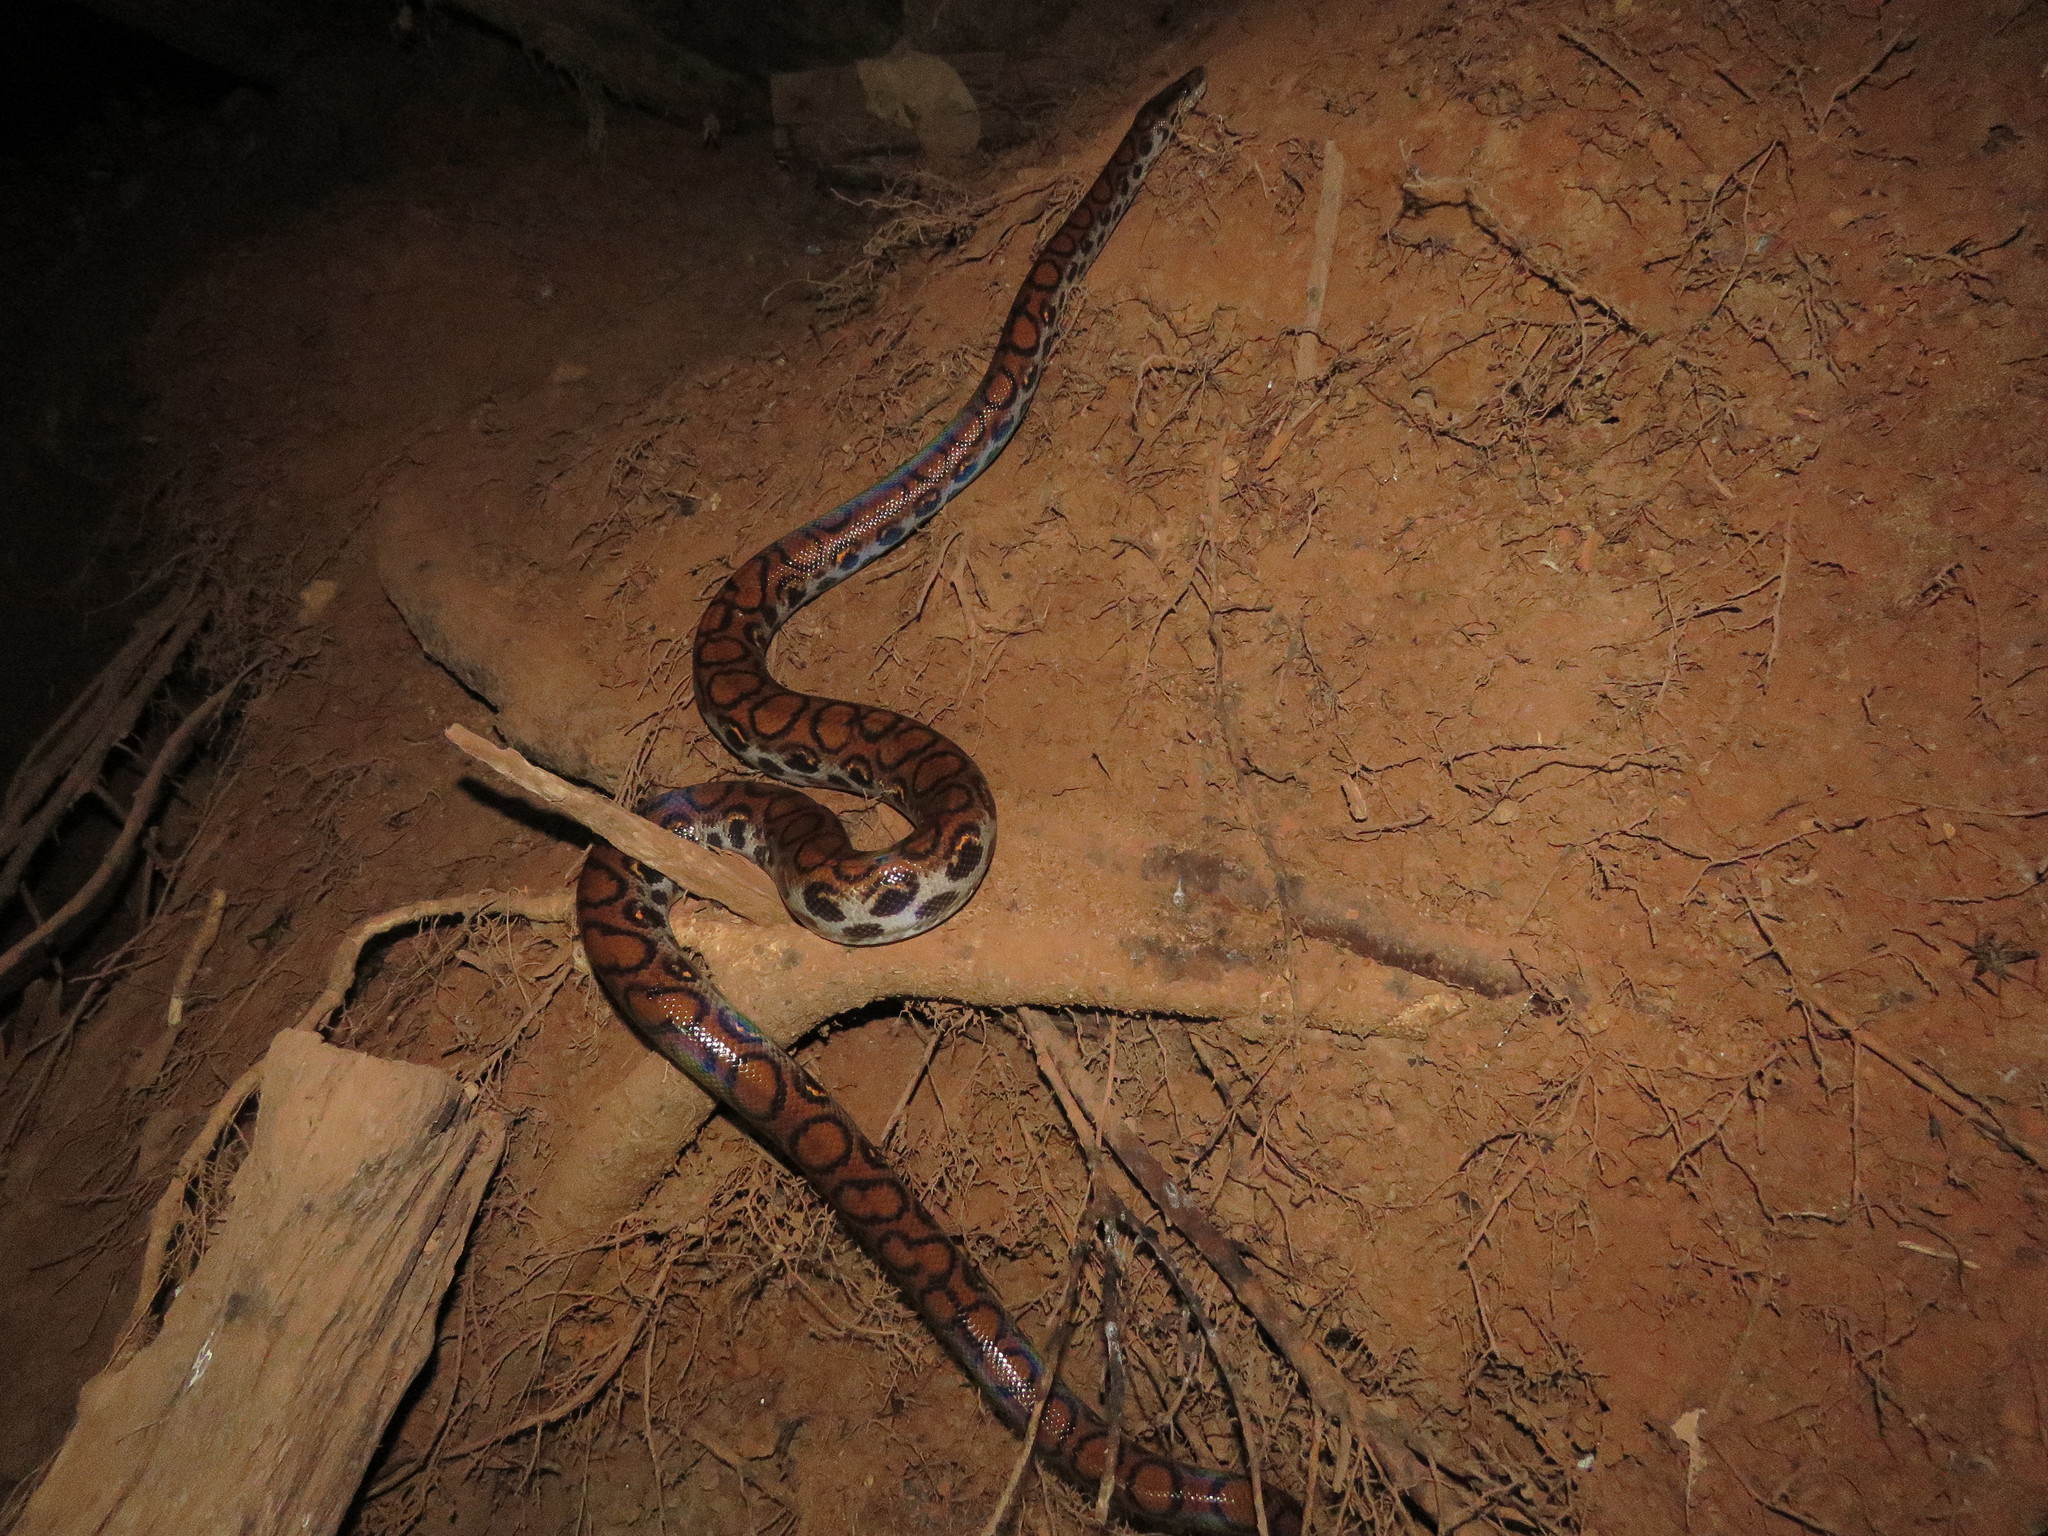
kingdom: Animalia
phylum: Chordata
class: Squamata
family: Boidae
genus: Epicrates
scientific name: Epicrates cenchria
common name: Rainbow boa
